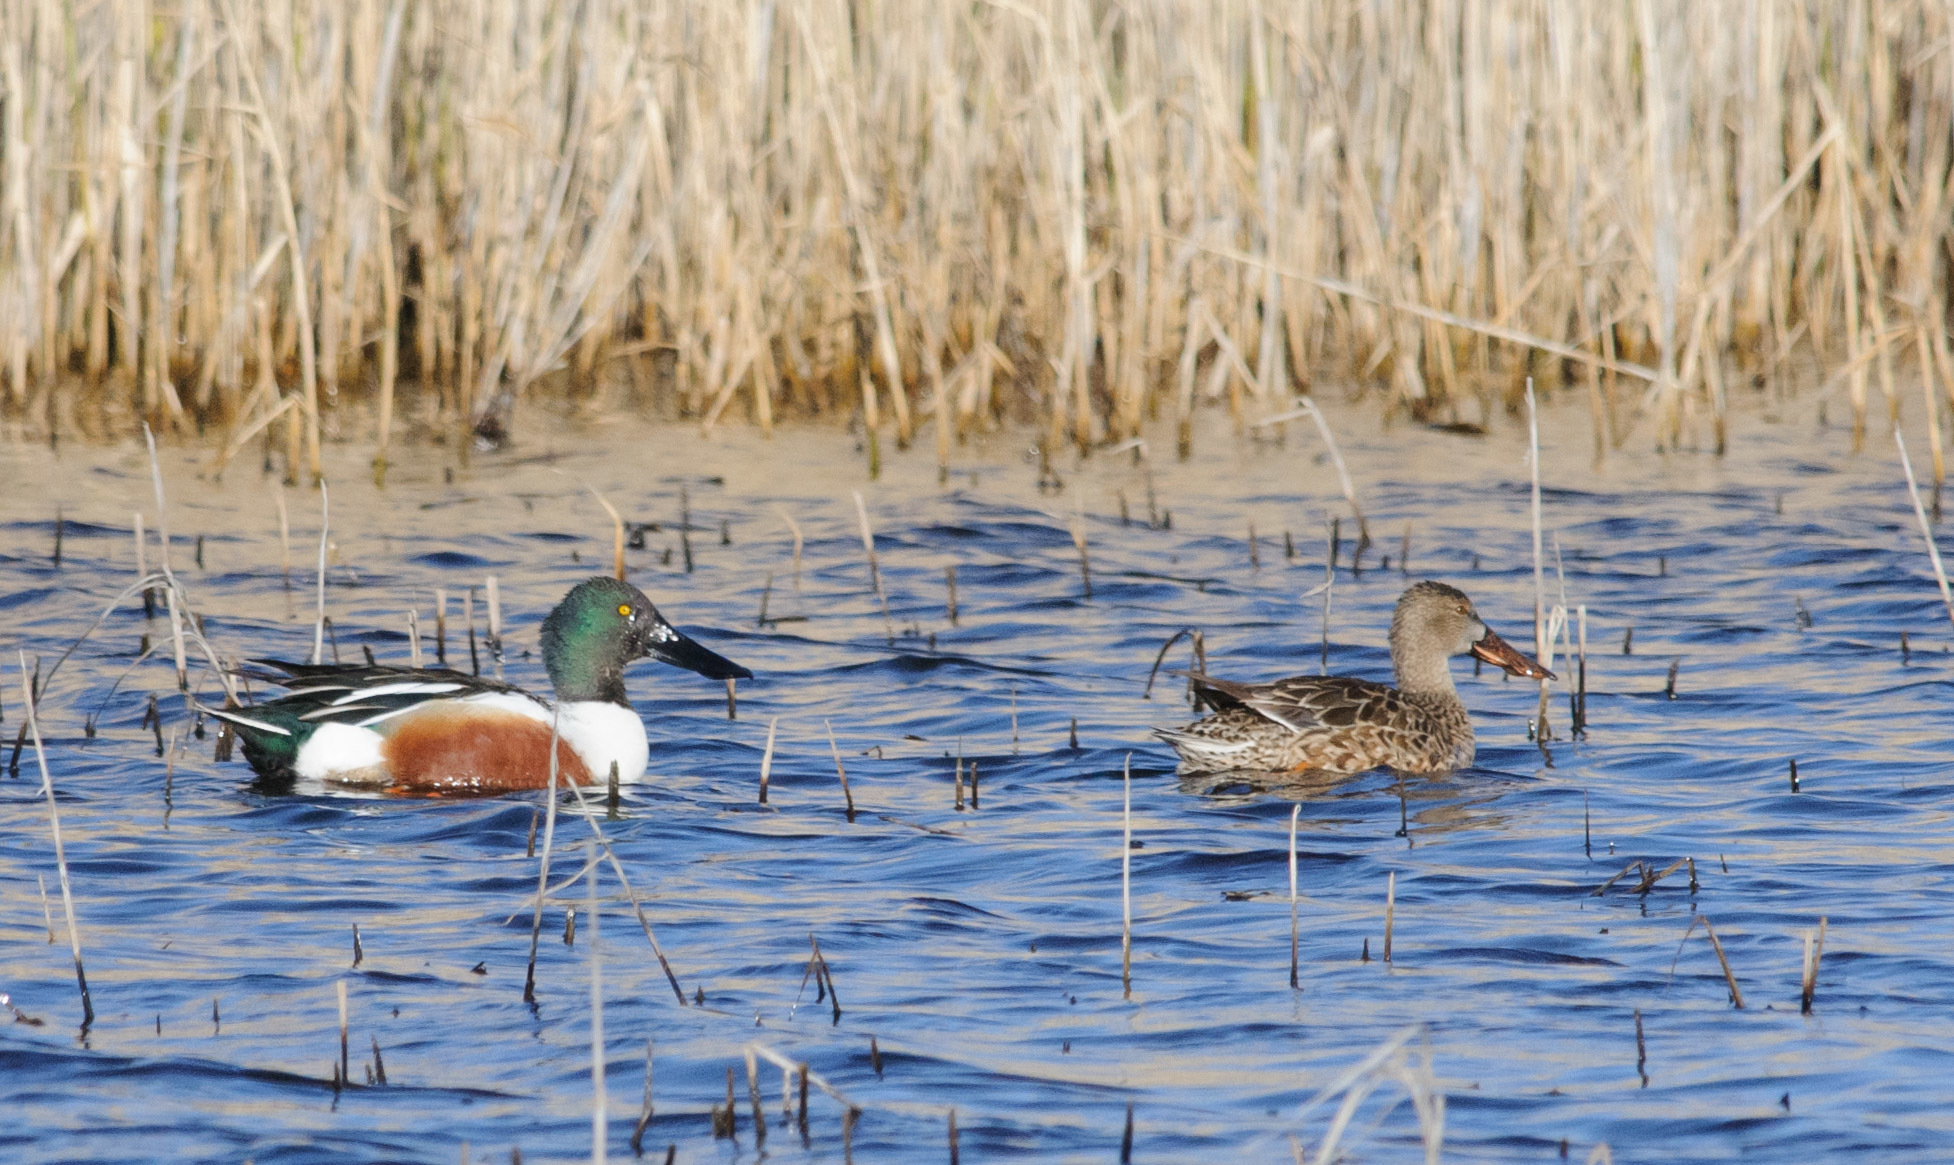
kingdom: Animalia
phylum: Chordata
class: Aves
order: Anseriformes
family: Anatidae
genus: Spatula
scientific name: Spatula clypeata
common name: Northern shoveler
